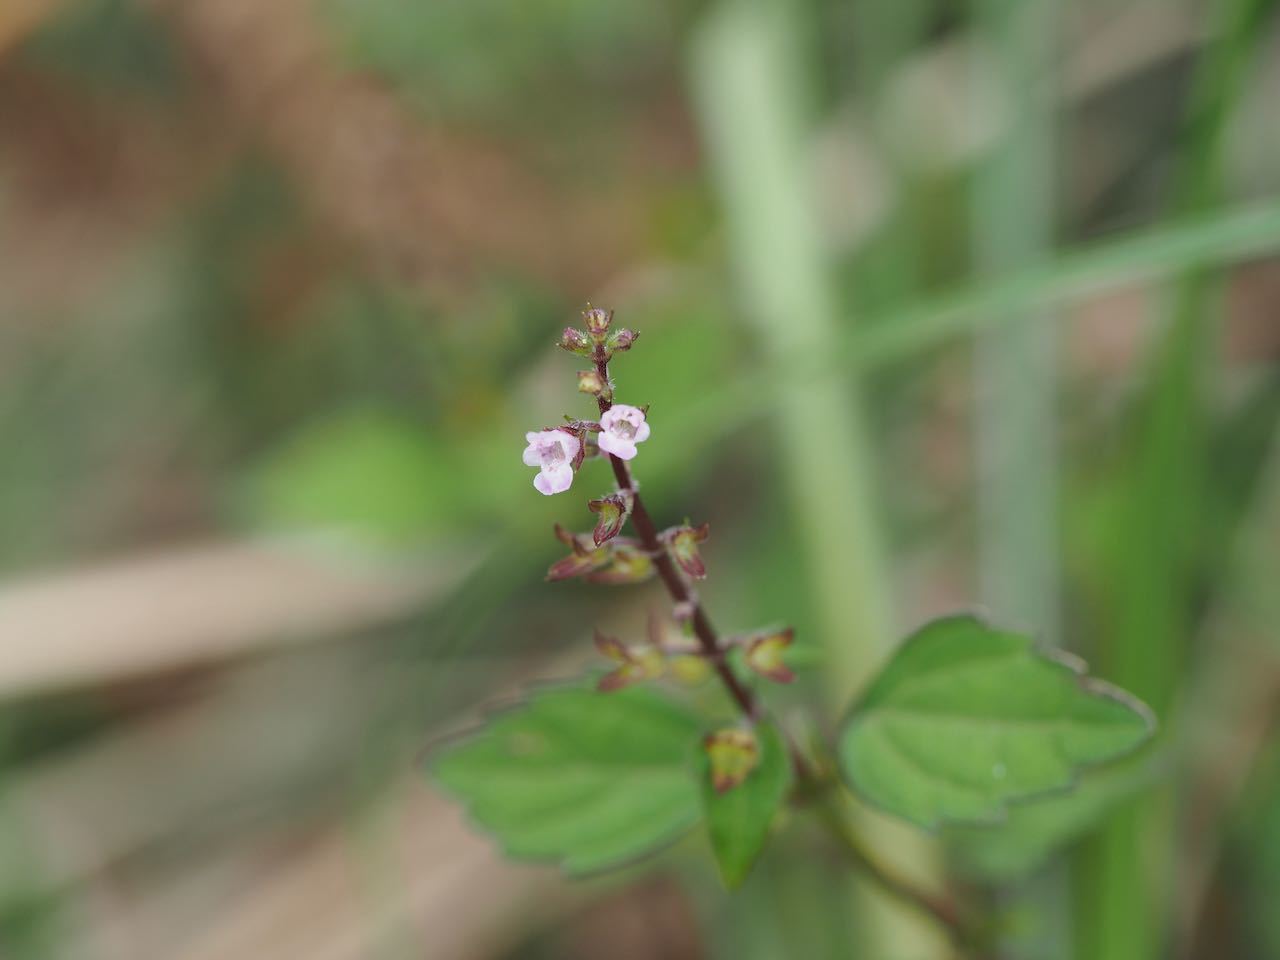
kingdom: Plantae
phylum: Tracheophyta
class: Magnoliopsida
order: Lamiales
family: Lamiaceae
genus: Mosla
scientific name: Mosla scabra
